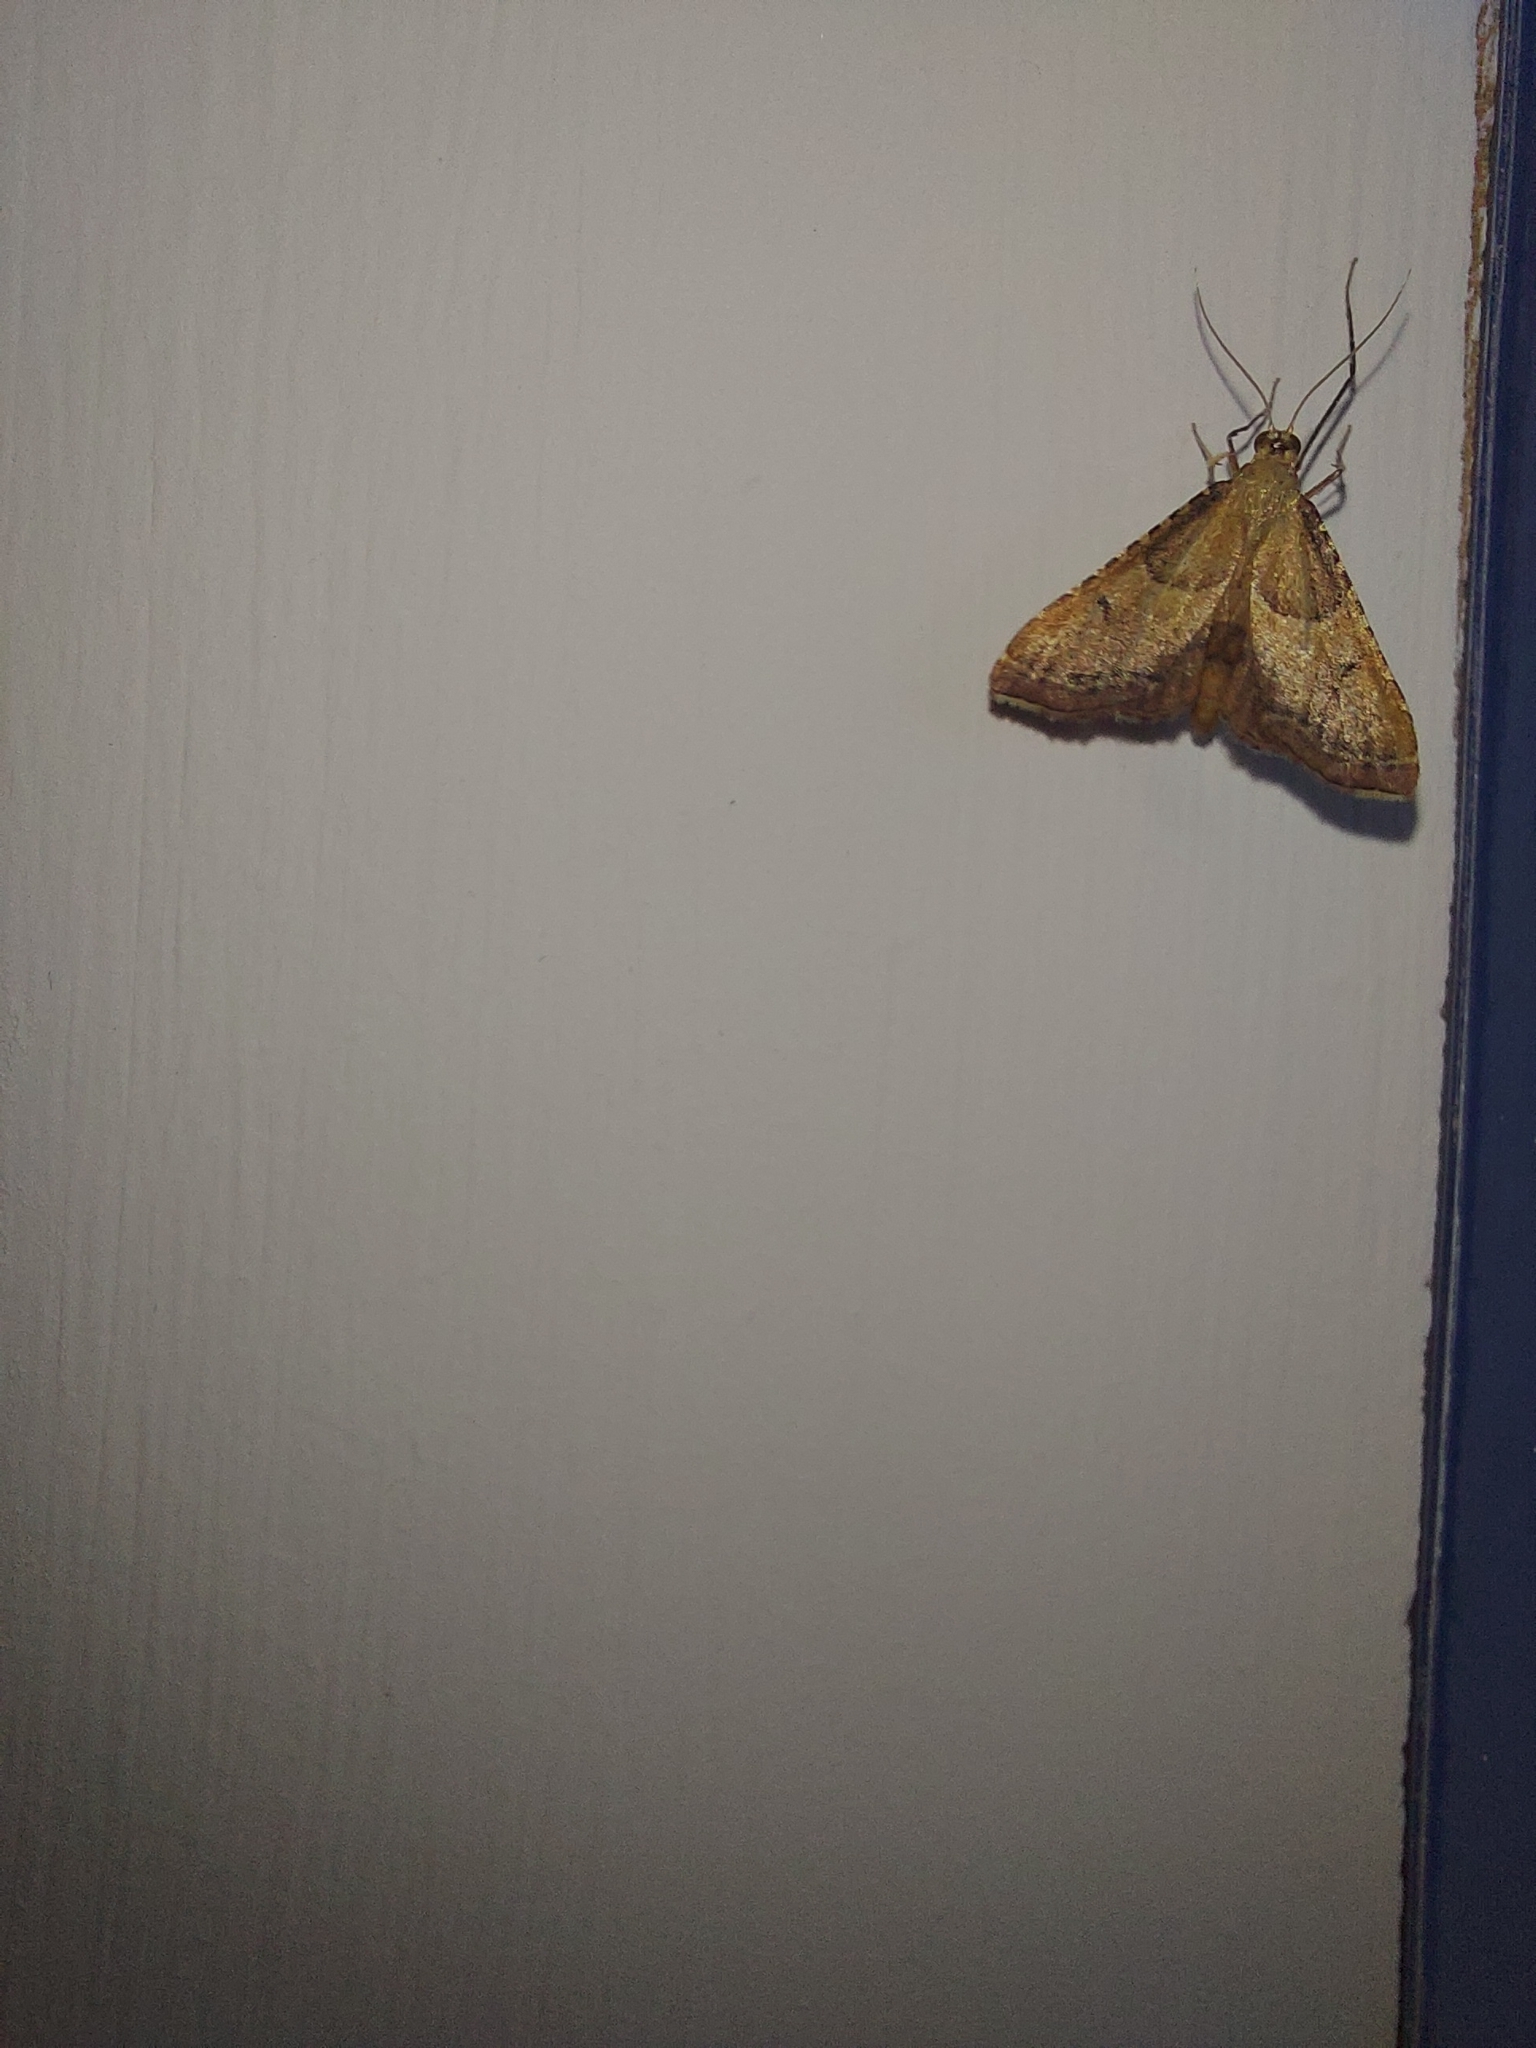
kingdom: Animalia
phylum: Arthropoda
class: Insecta
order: Lepidoptera
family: Pyralidae
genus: Endotricha
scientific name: Endotricha flammealis
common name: Rosy tabby
